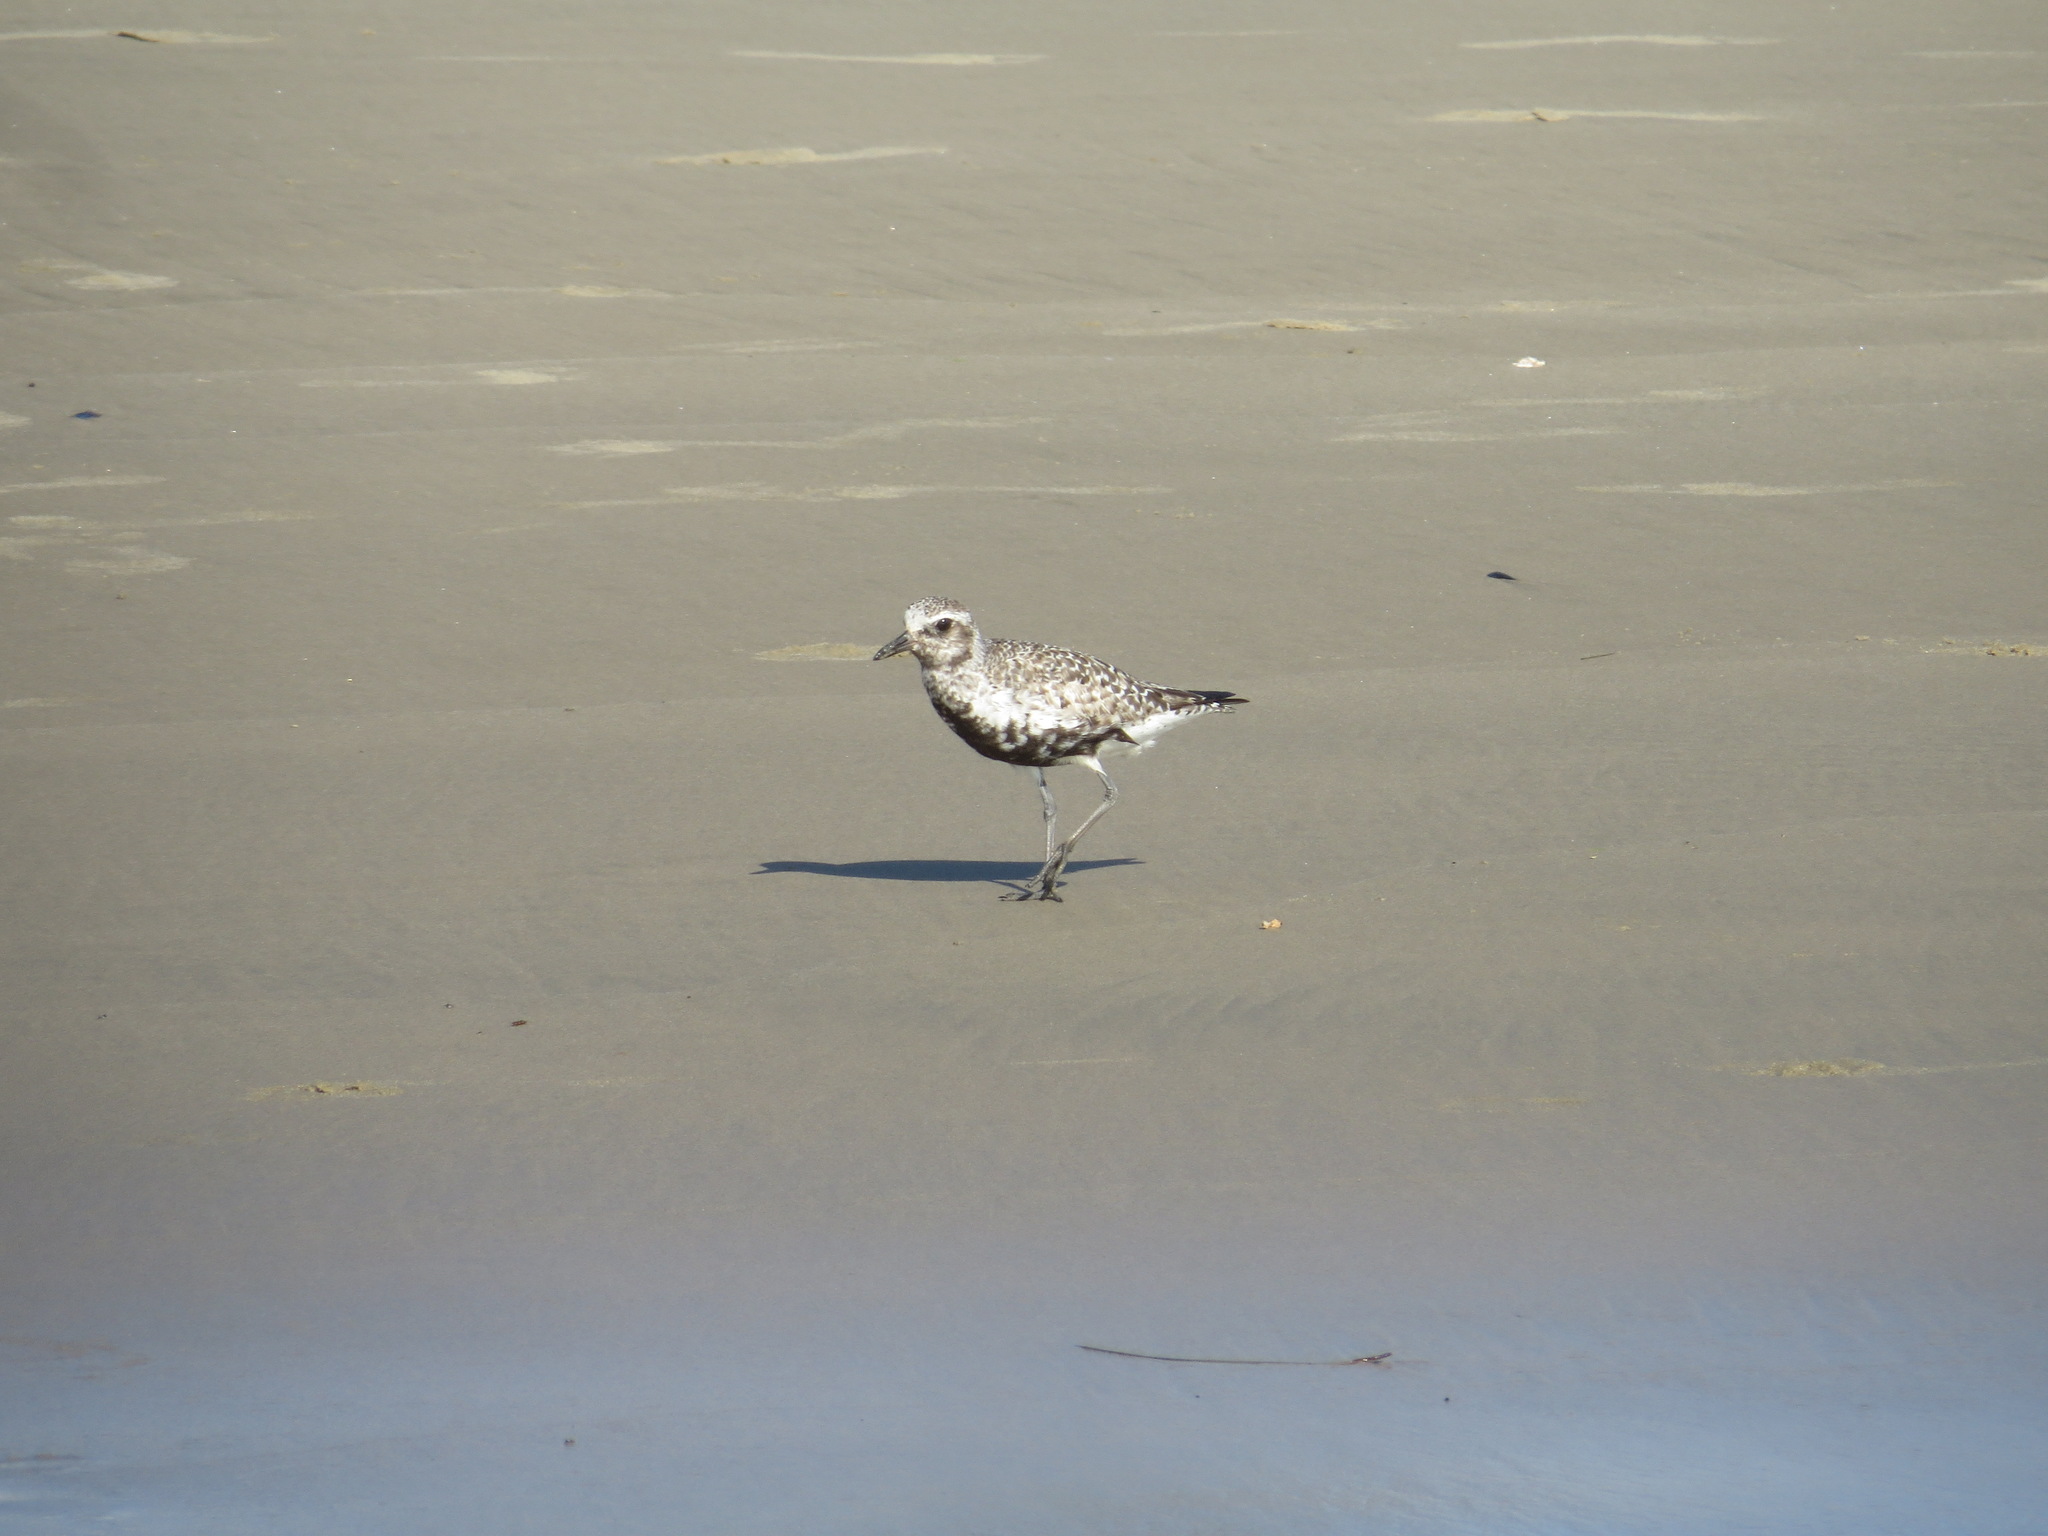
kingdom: Animalia
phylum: Chordata
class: Aves
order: Charadriiformes
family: Charadriidae
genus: Pluvialis
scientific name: Pluvialis squatarola
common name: Grey plover
